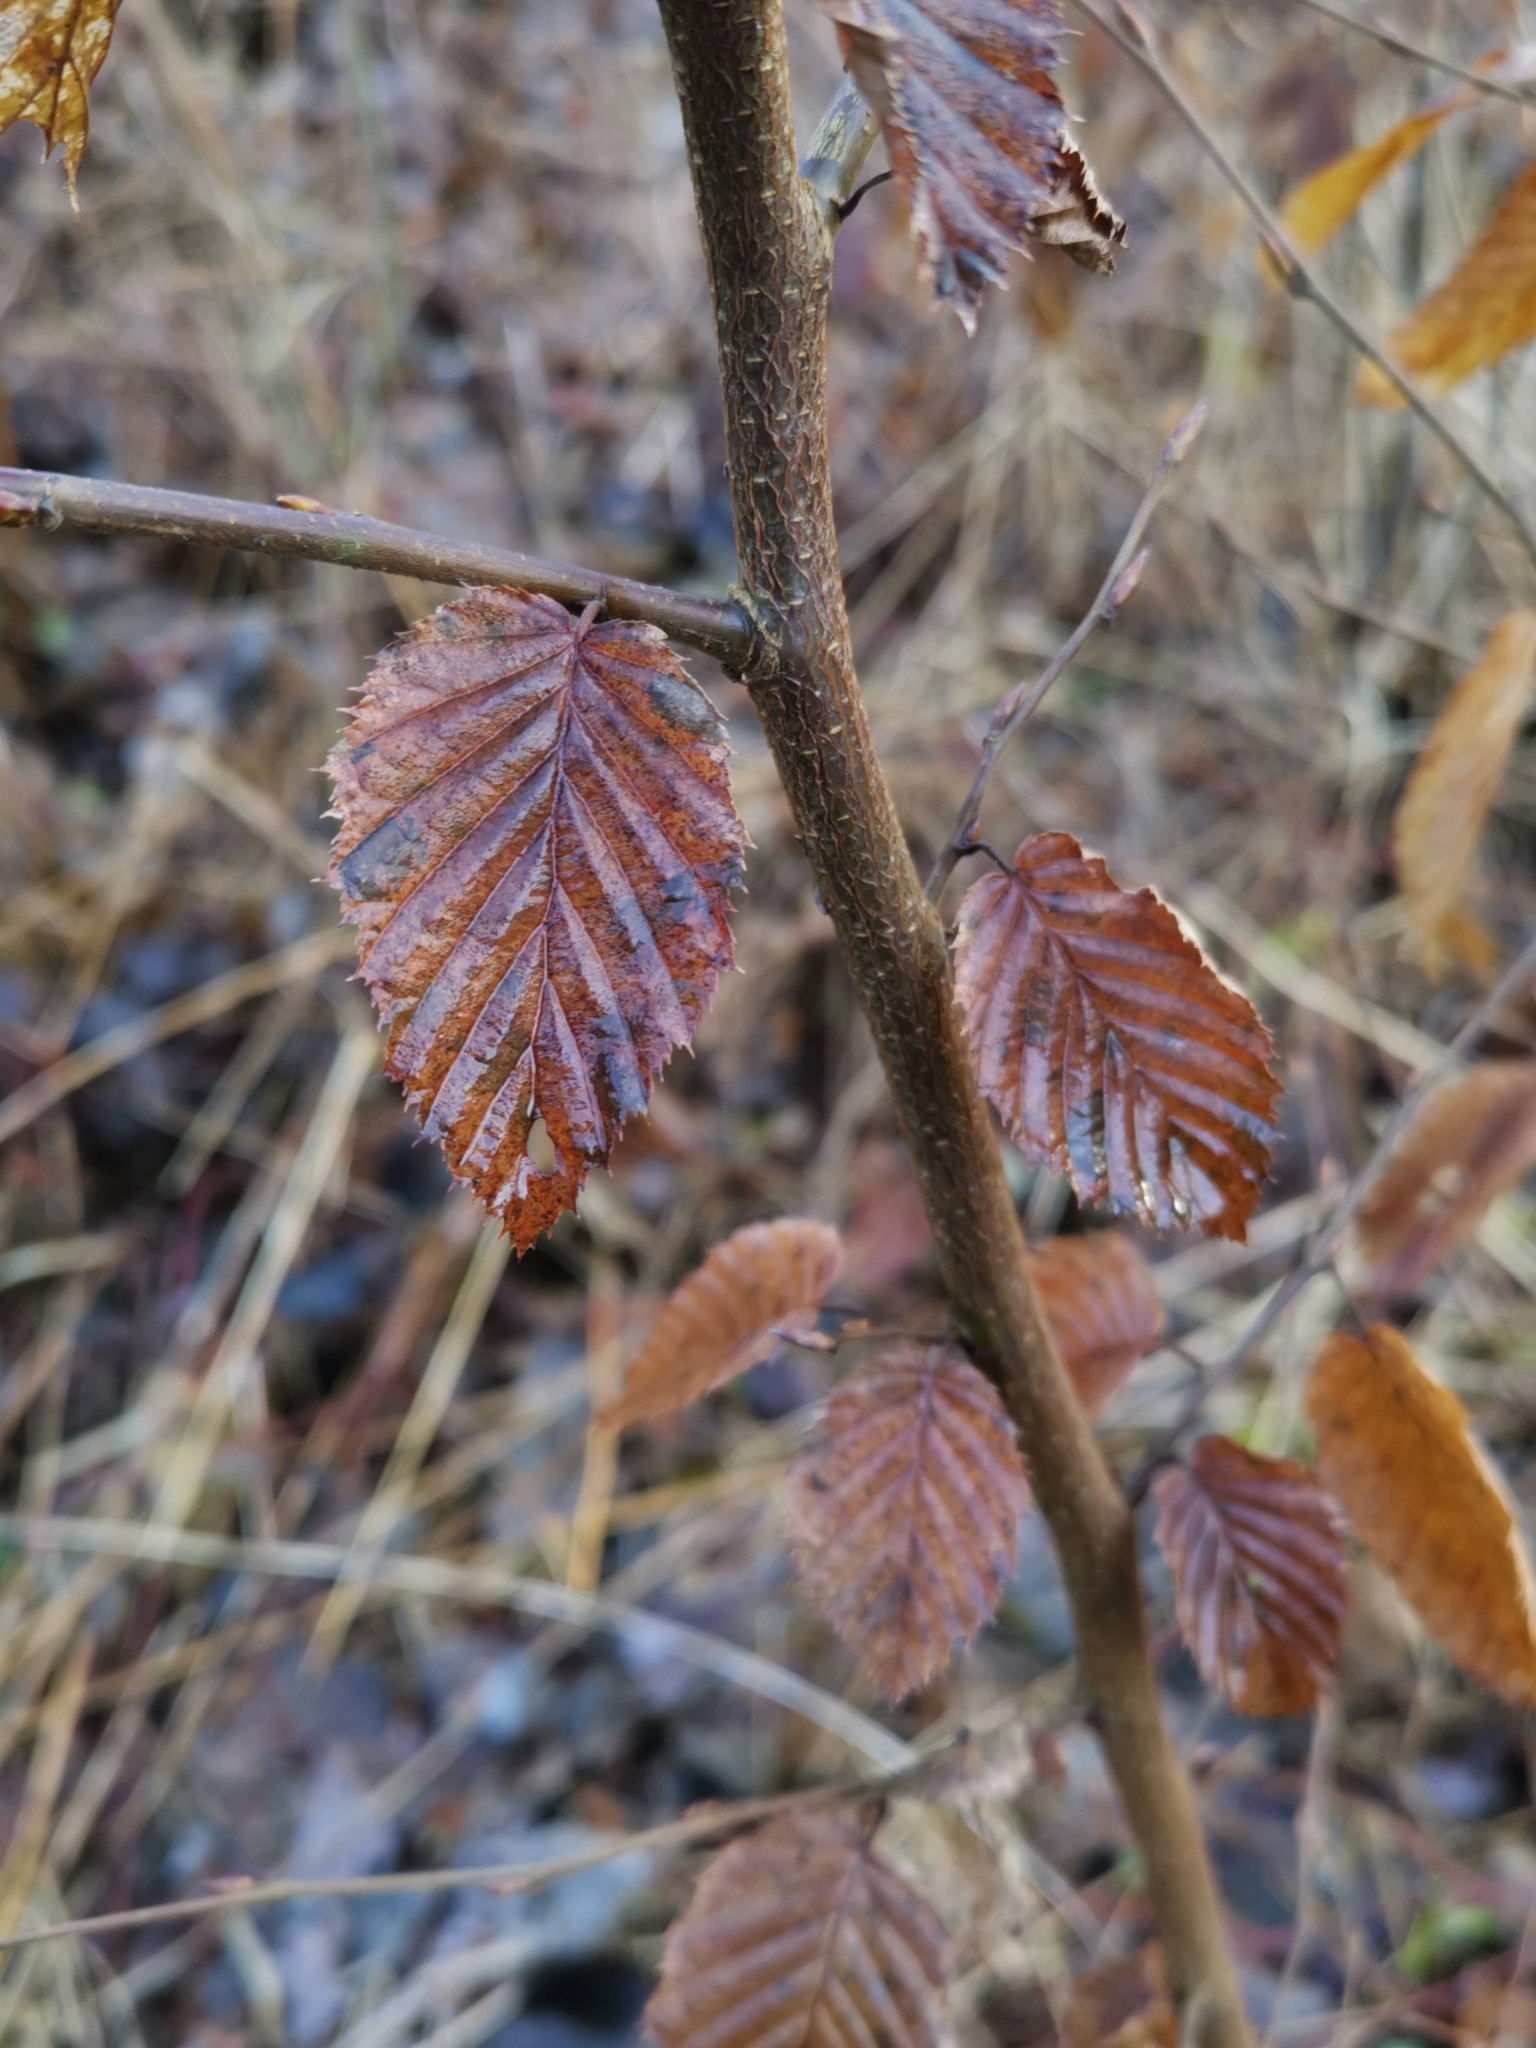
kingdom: Plantae
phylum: Tracheophyta
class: Magnoliopsida
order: Fagales
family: Betulaceae
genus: Carpinus
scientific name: Carpinus betulus
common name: Hornbeam
